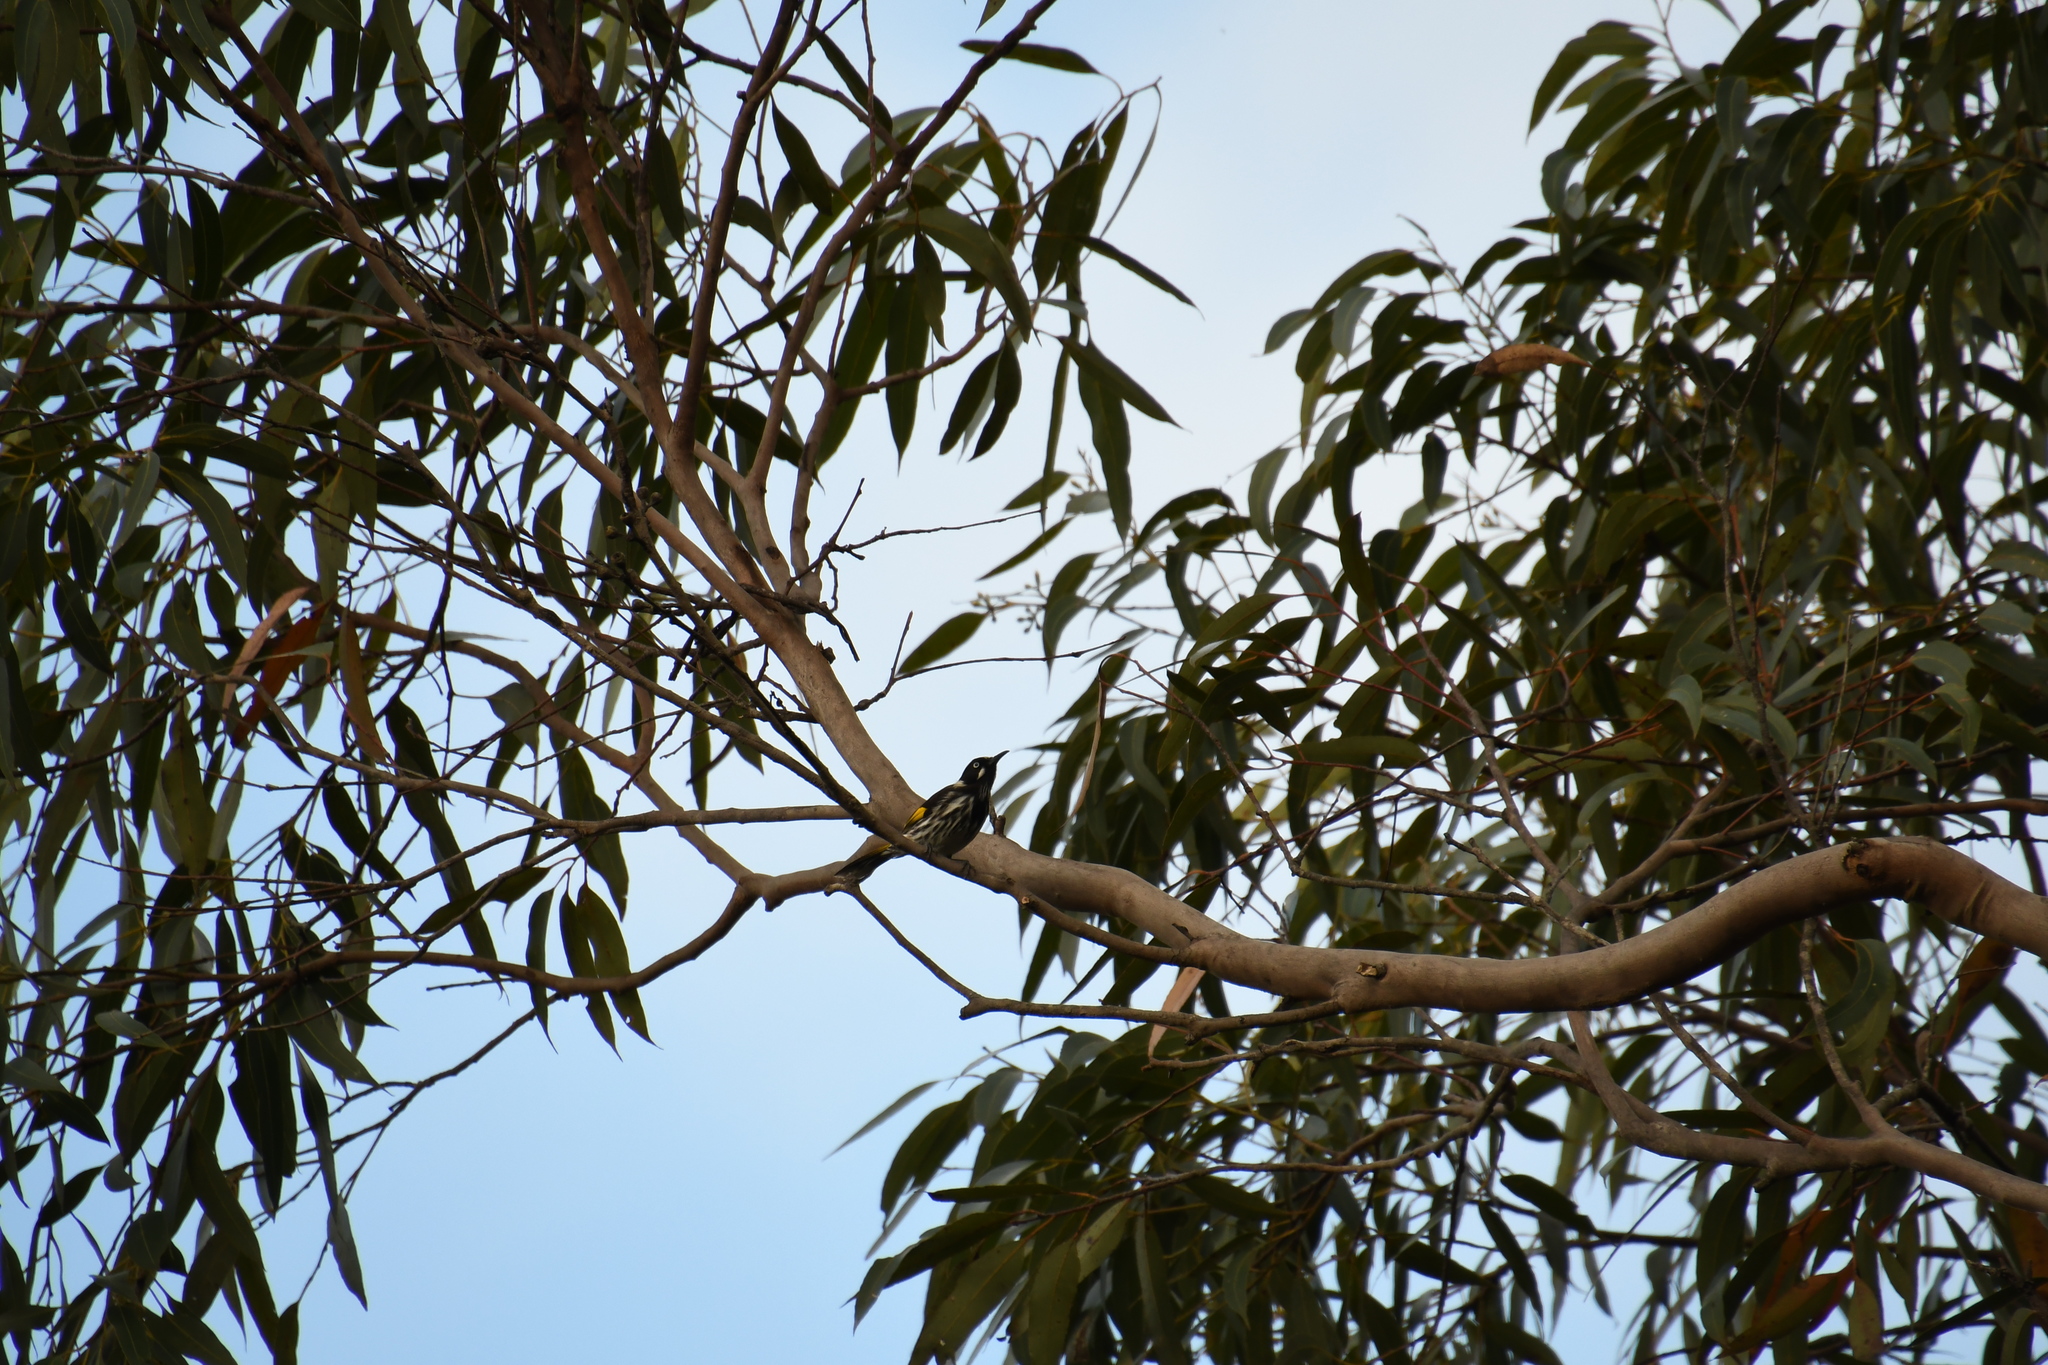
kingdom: Animalia
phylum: Chordata
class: Aves
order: Passeriformes
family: Meliphagidae
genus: Phylidonyris
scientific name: Phylidonyris novaehollandiae
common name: New holland honeyeater
